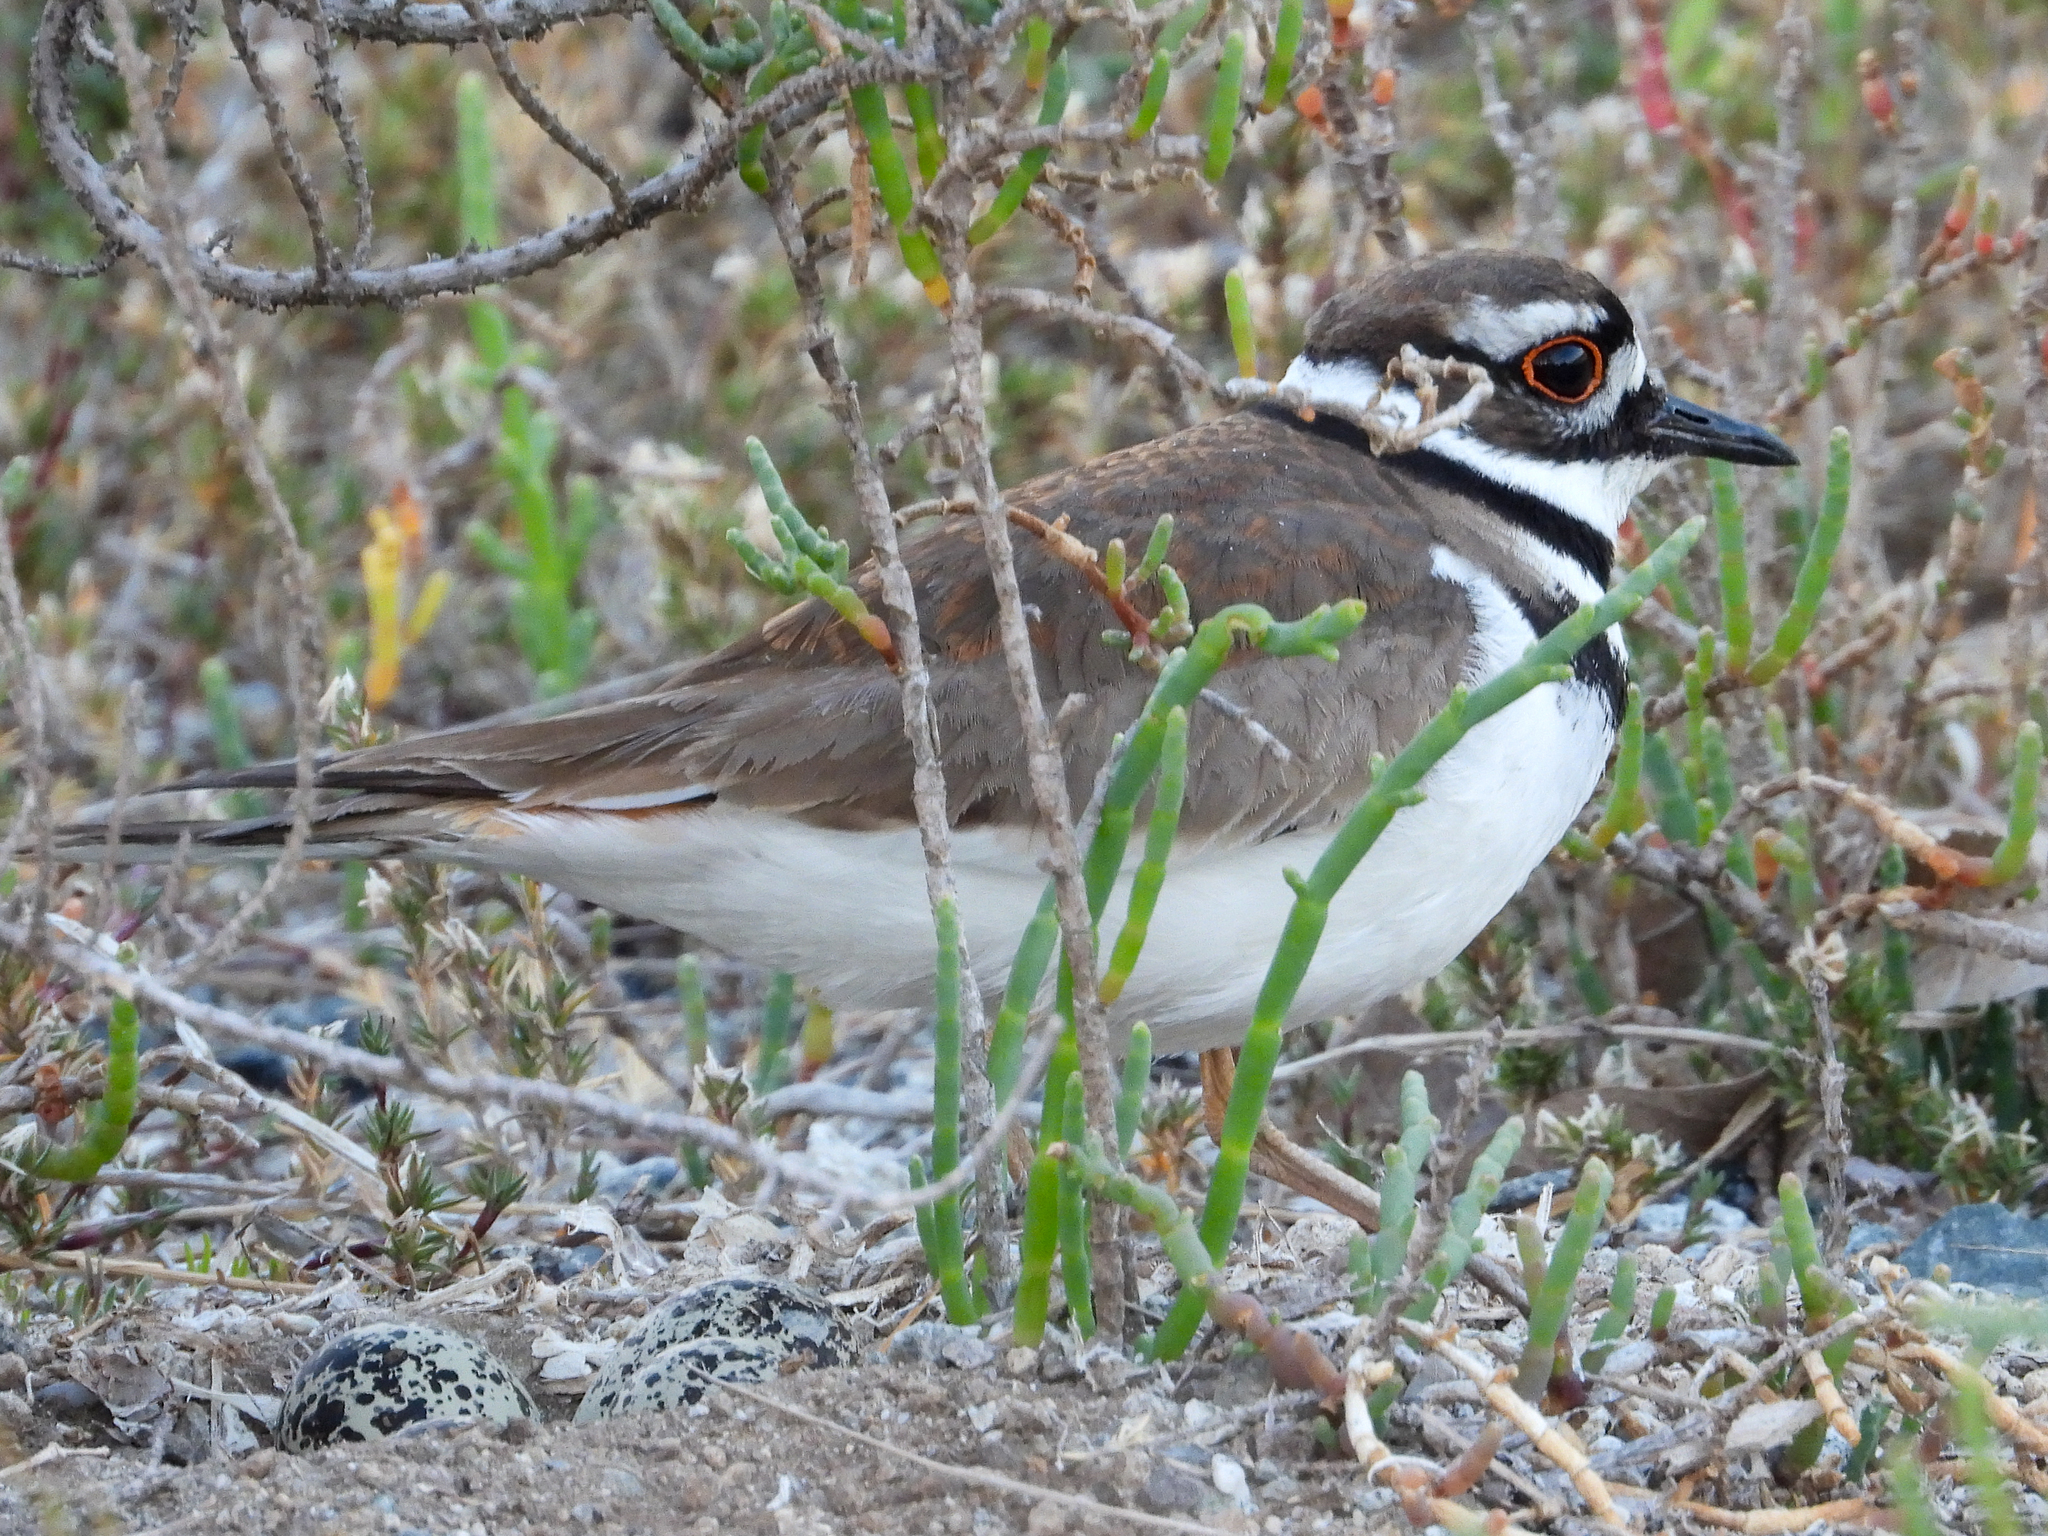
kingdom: Animalia
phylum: Chordata
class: Aves
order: Charadriiformes
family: Charadriidae
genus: Charadrius
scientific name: Charadrius vociferus
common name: Killdeer
